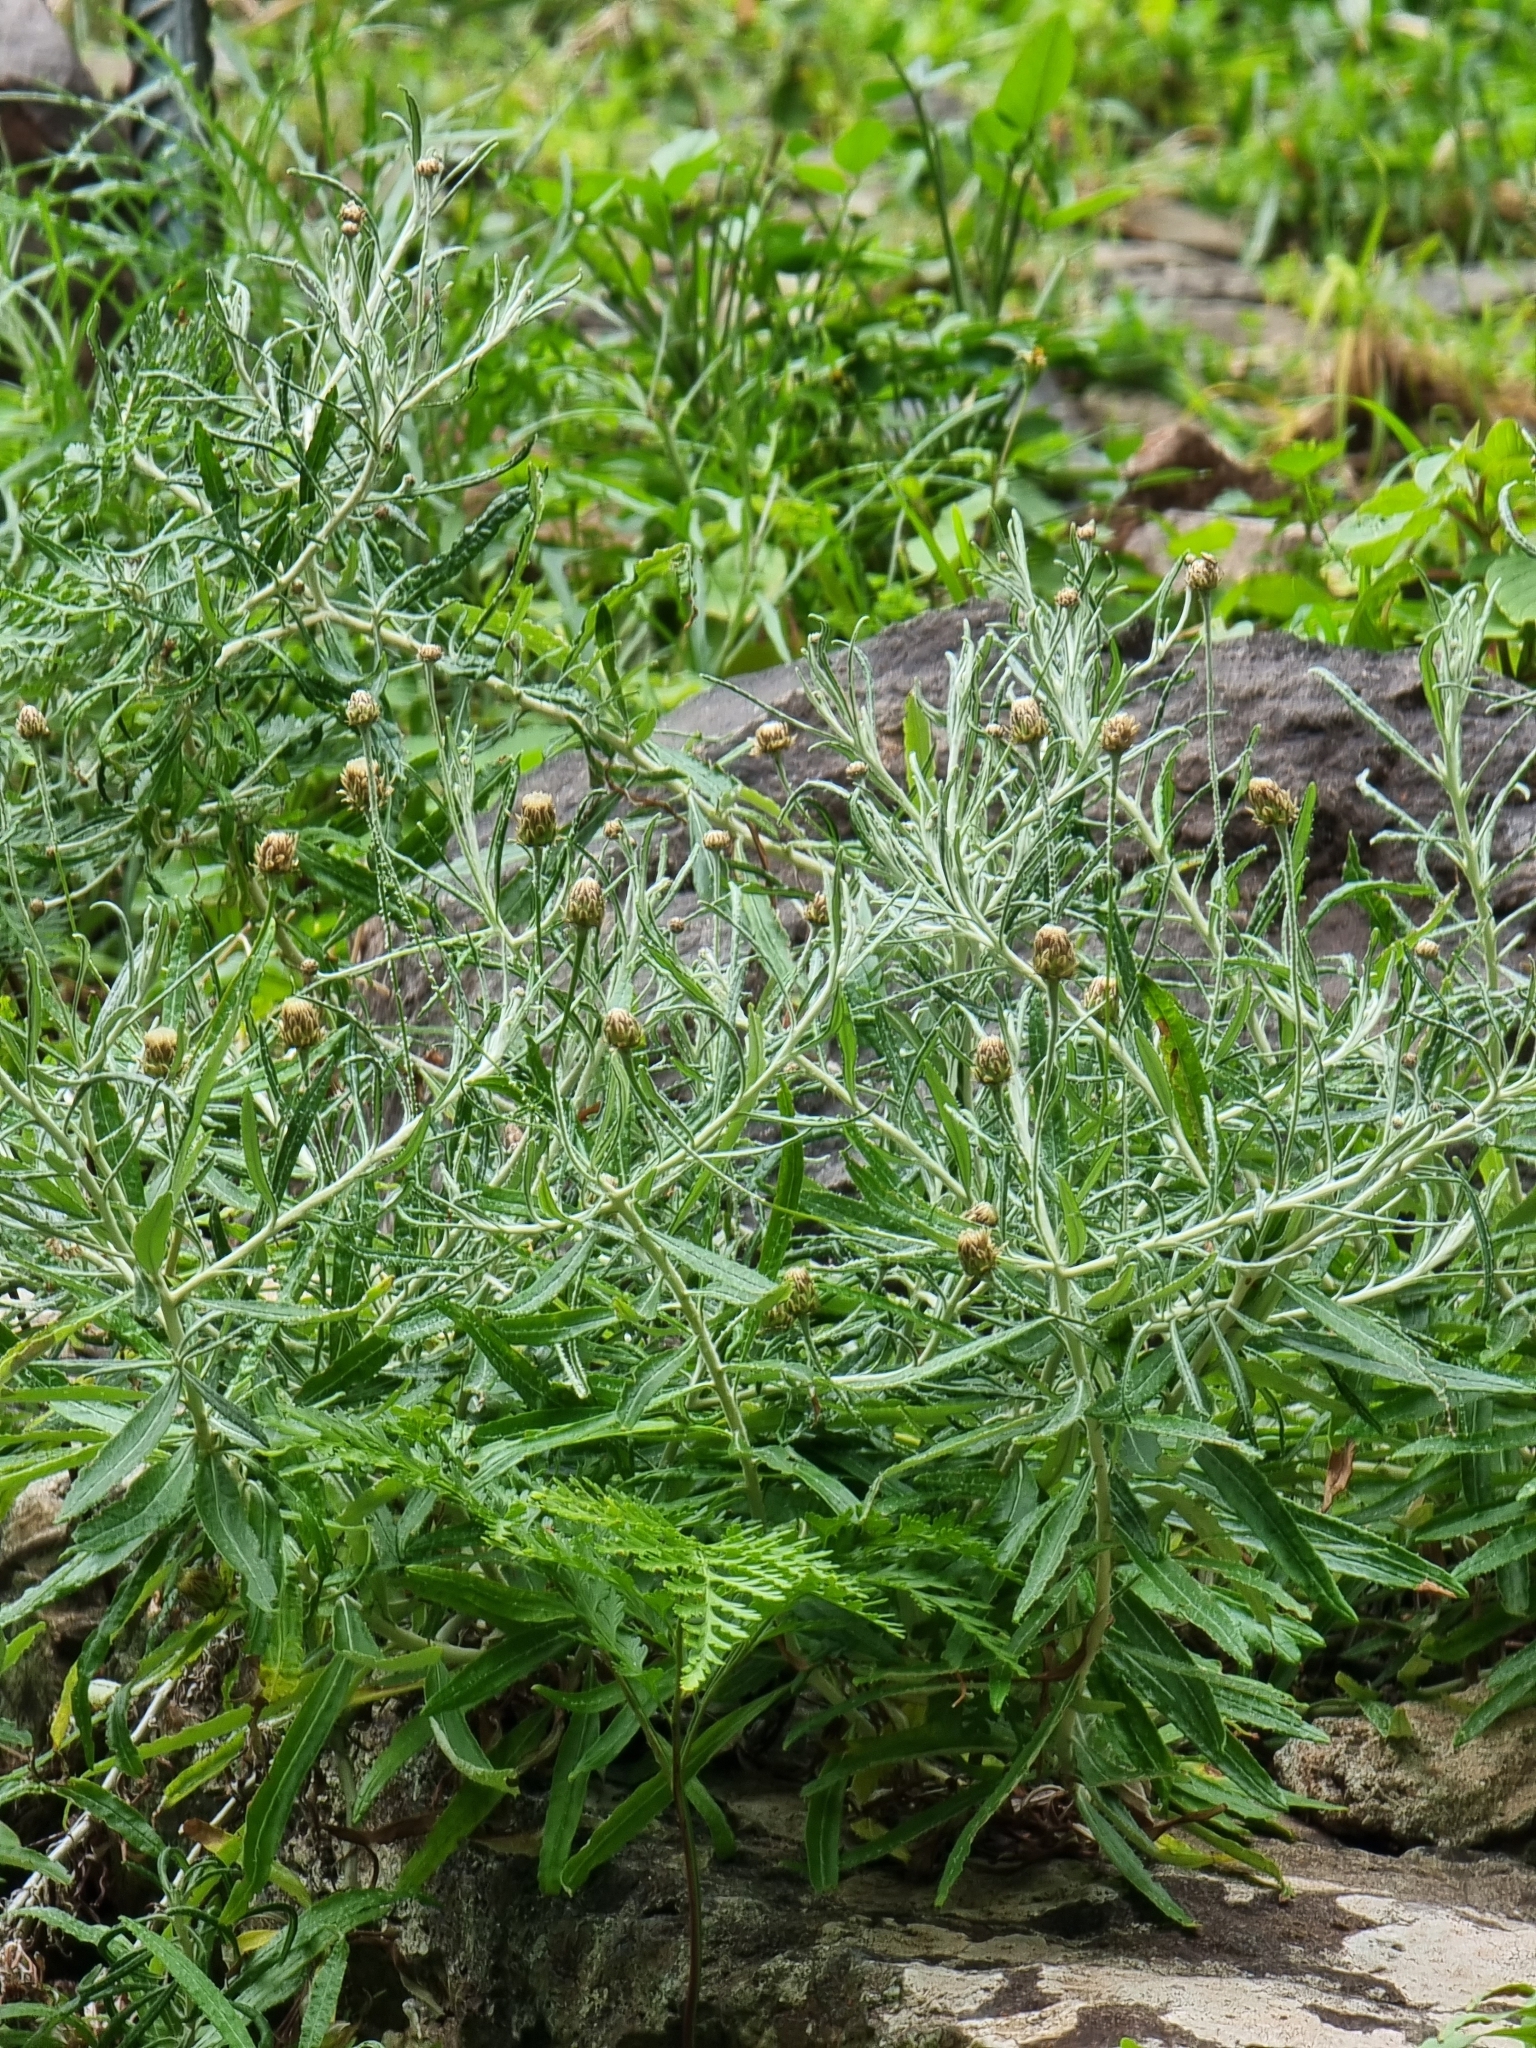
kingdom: Plantae
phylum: Tracheophyta
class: Magnoliopsida
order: Asterales
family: Asteraceae
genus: Phagnalon
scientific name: Phagnalon saxatile
